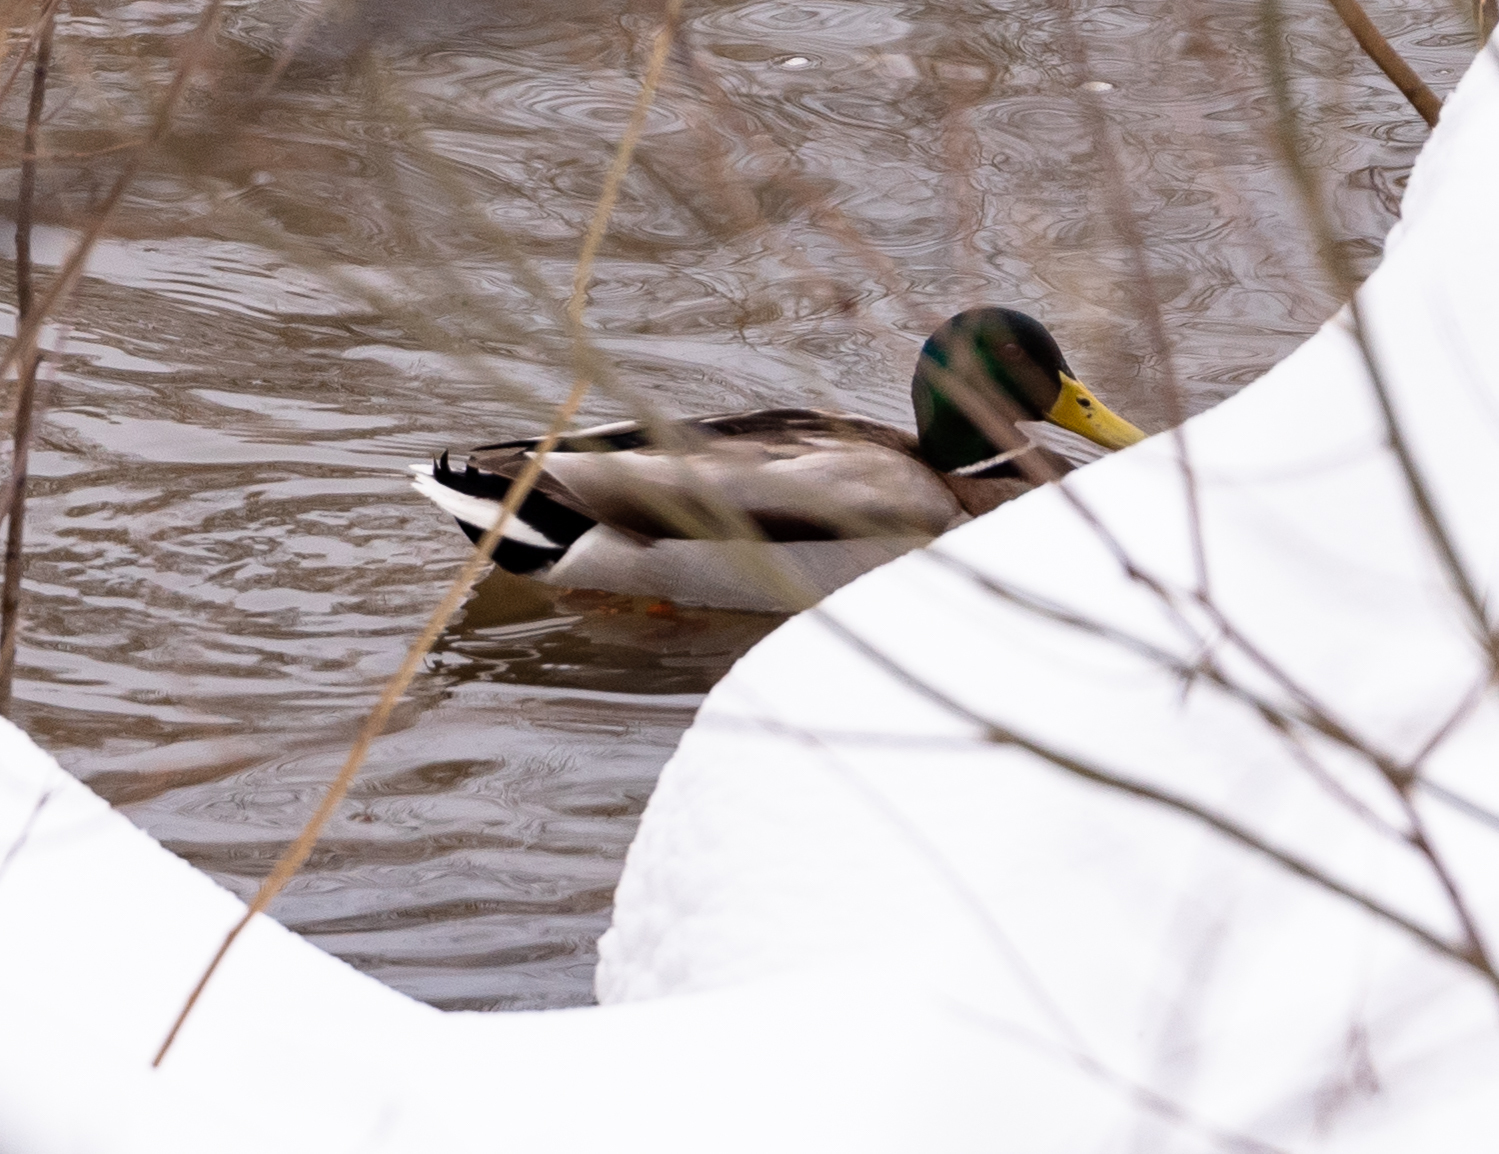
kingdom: Animalia
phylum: Chordata
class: Aves
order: Anseriformes
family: Anatidae
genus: Anas
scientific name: Anas platyrhynchos
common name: Mallard
